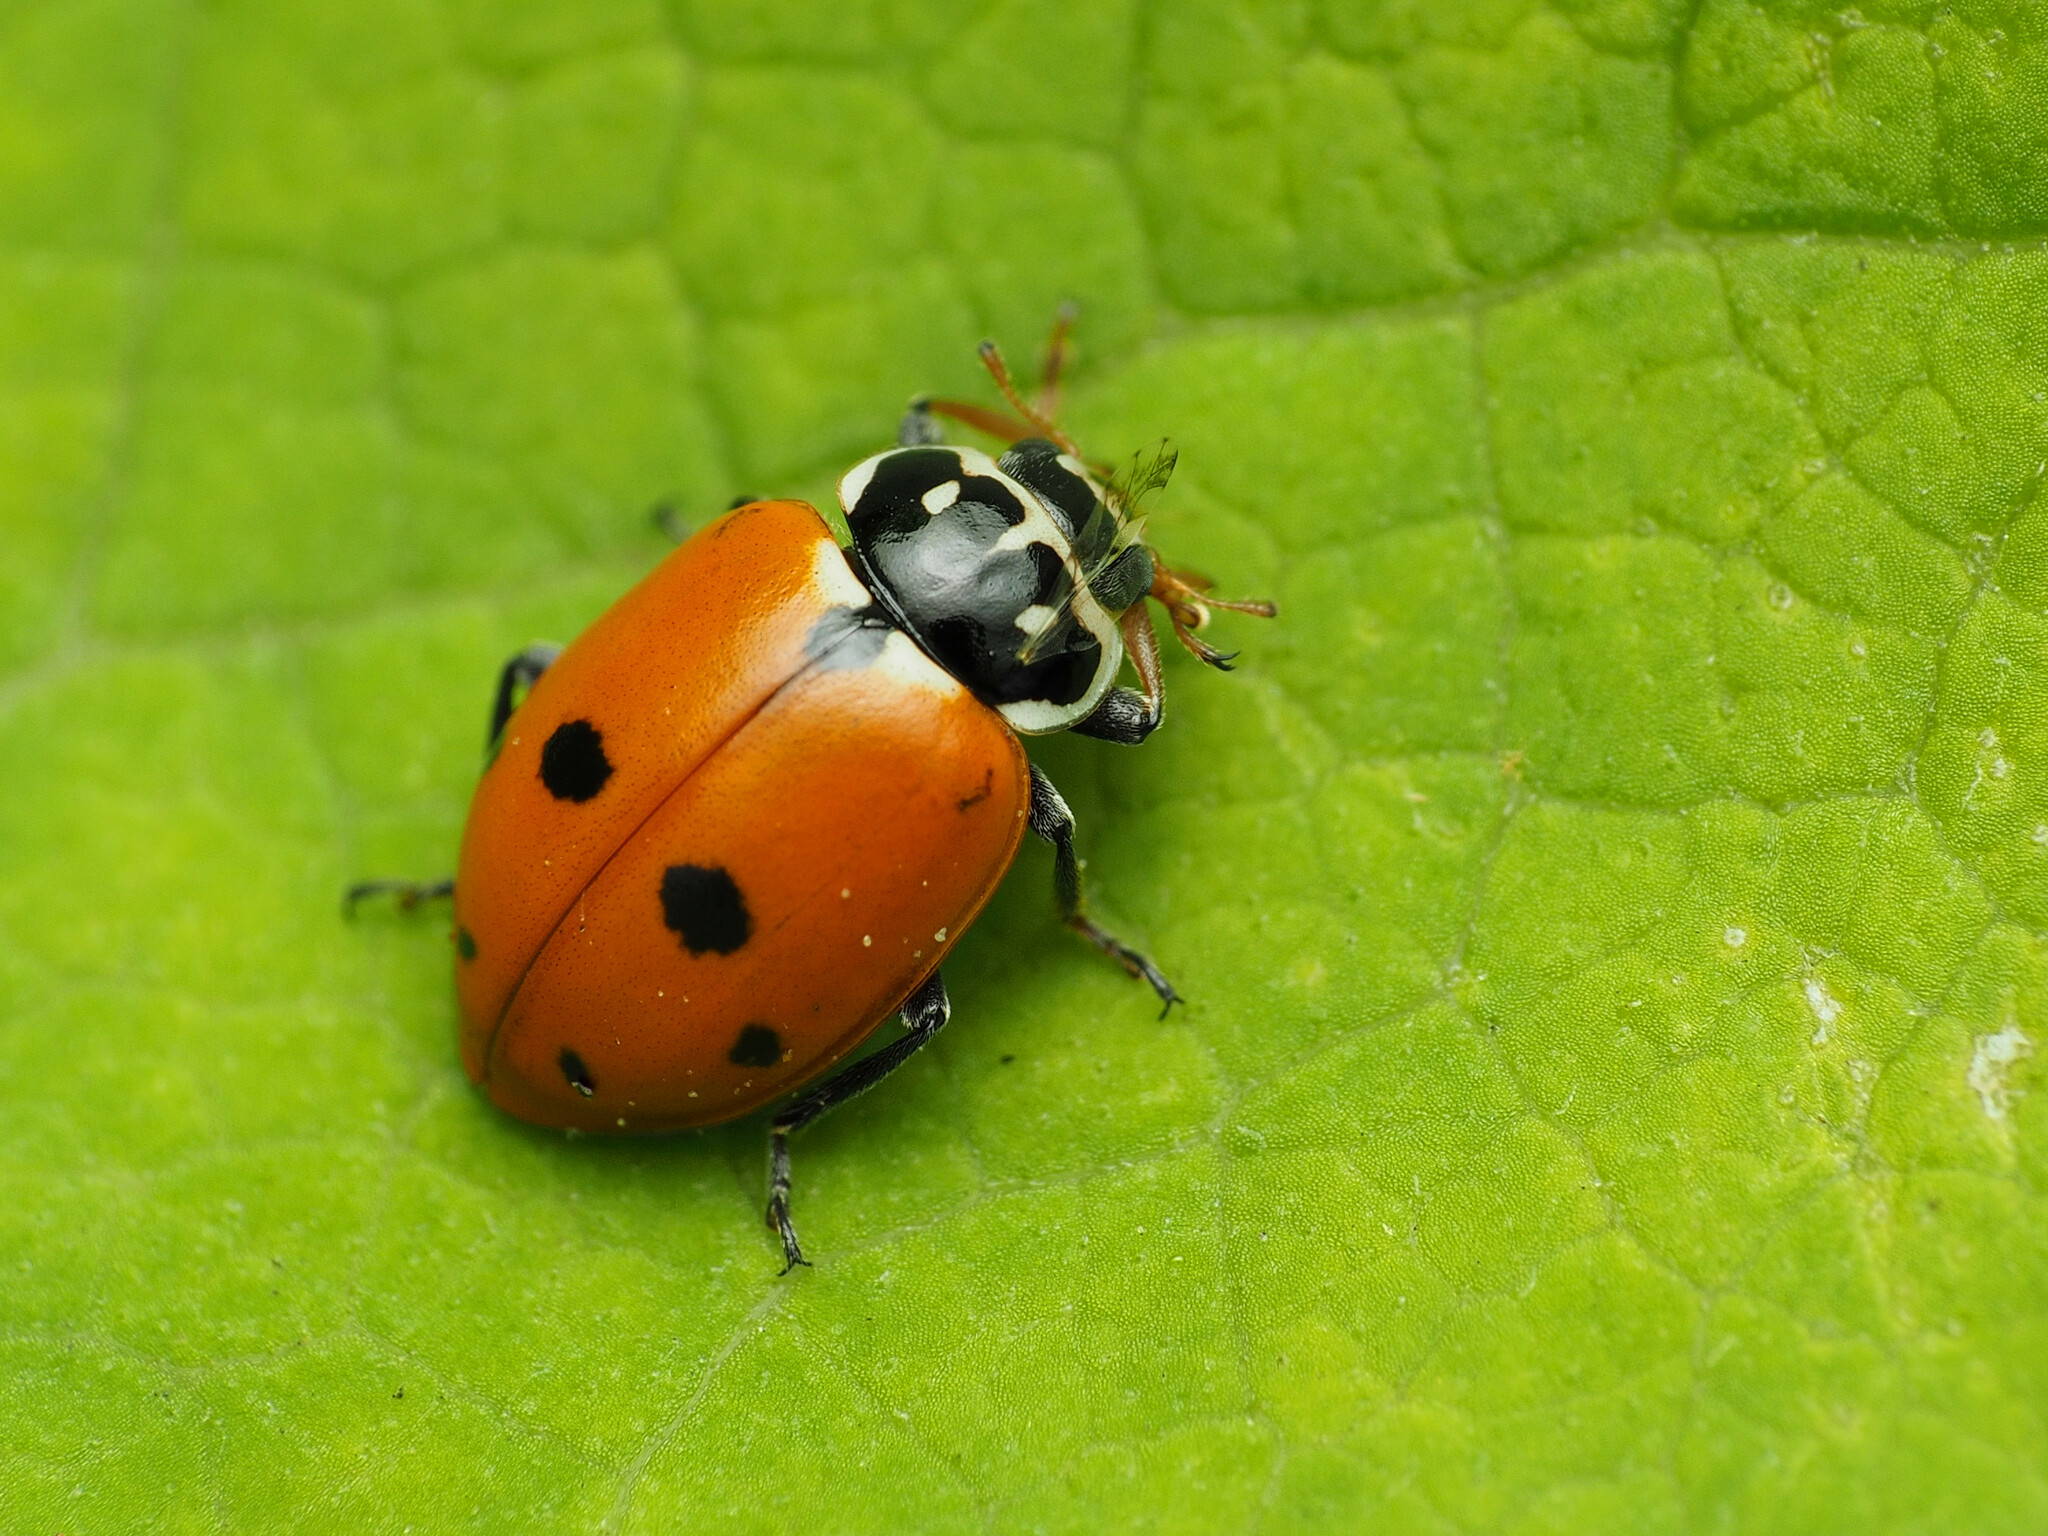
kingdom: Animalia
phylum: Arthropoda
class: Insecta
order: Coleoptera
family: Coccinellidae
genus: Hippodamia
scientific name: Hippodamia variegata
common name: Ladybird beetle
